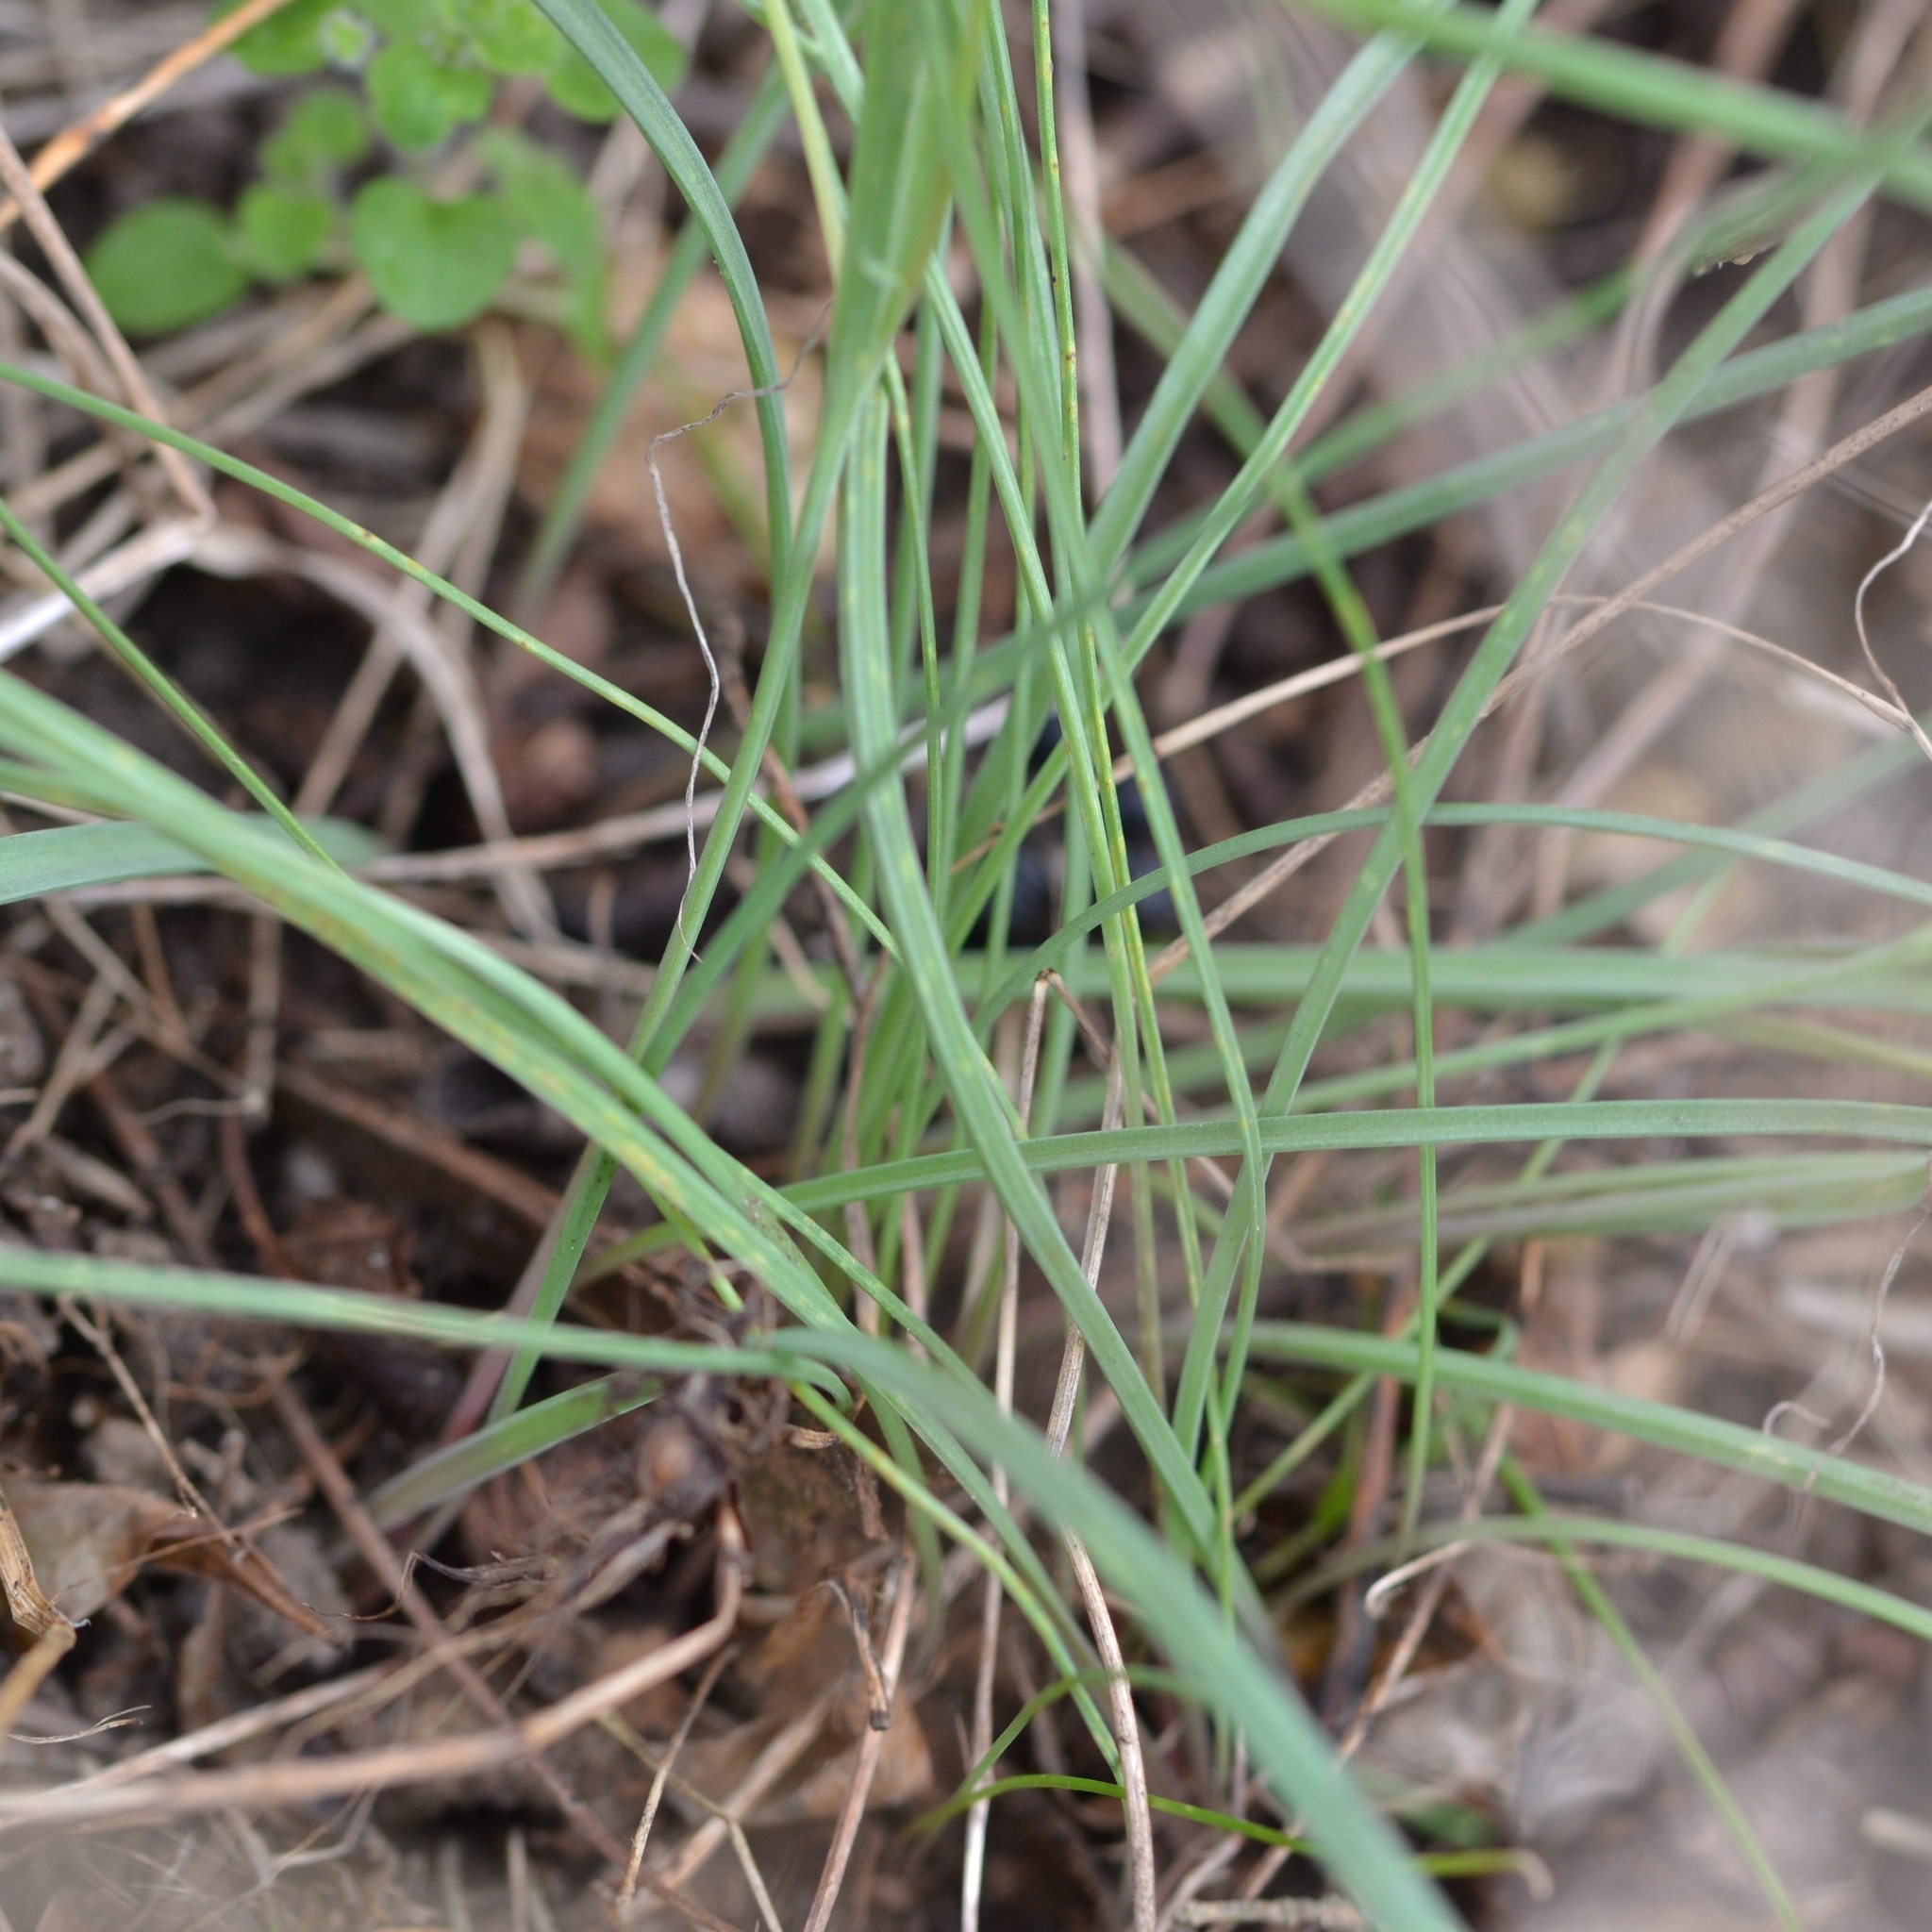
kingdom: Plantae
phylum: Tracheophyta
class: Liliopsida
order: Liliales
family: Liliaceae
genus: Gagea
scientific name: Gagea pratensis
